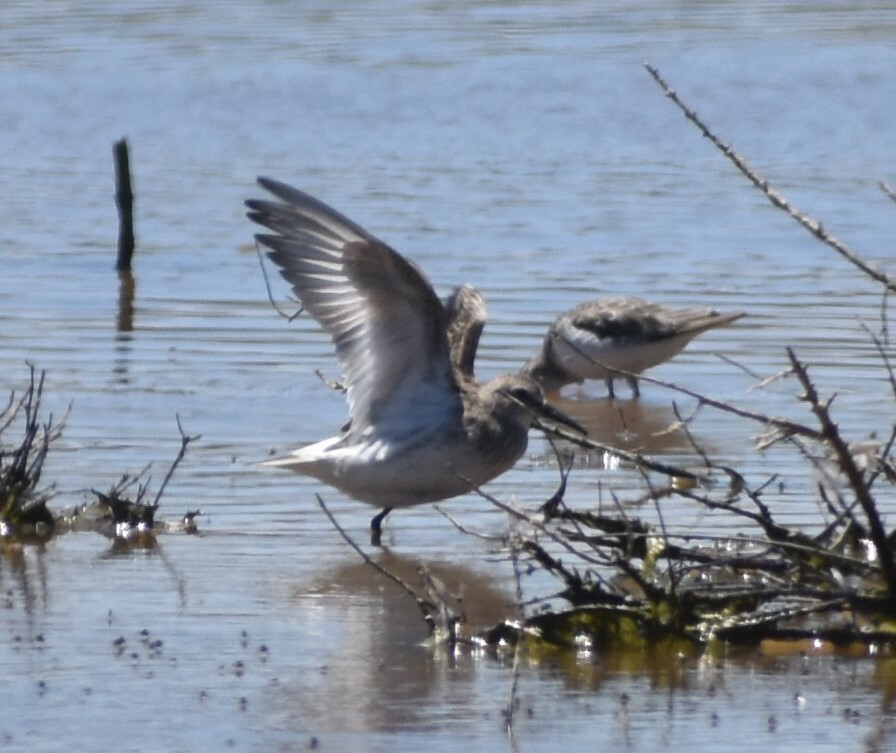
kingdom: Animalia
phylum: Chordata
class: Aves
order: Charadriiformes
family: Scolopacidae
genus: Calidris
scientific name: Calidris fuscicollis
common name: White-rumped sandpiper
